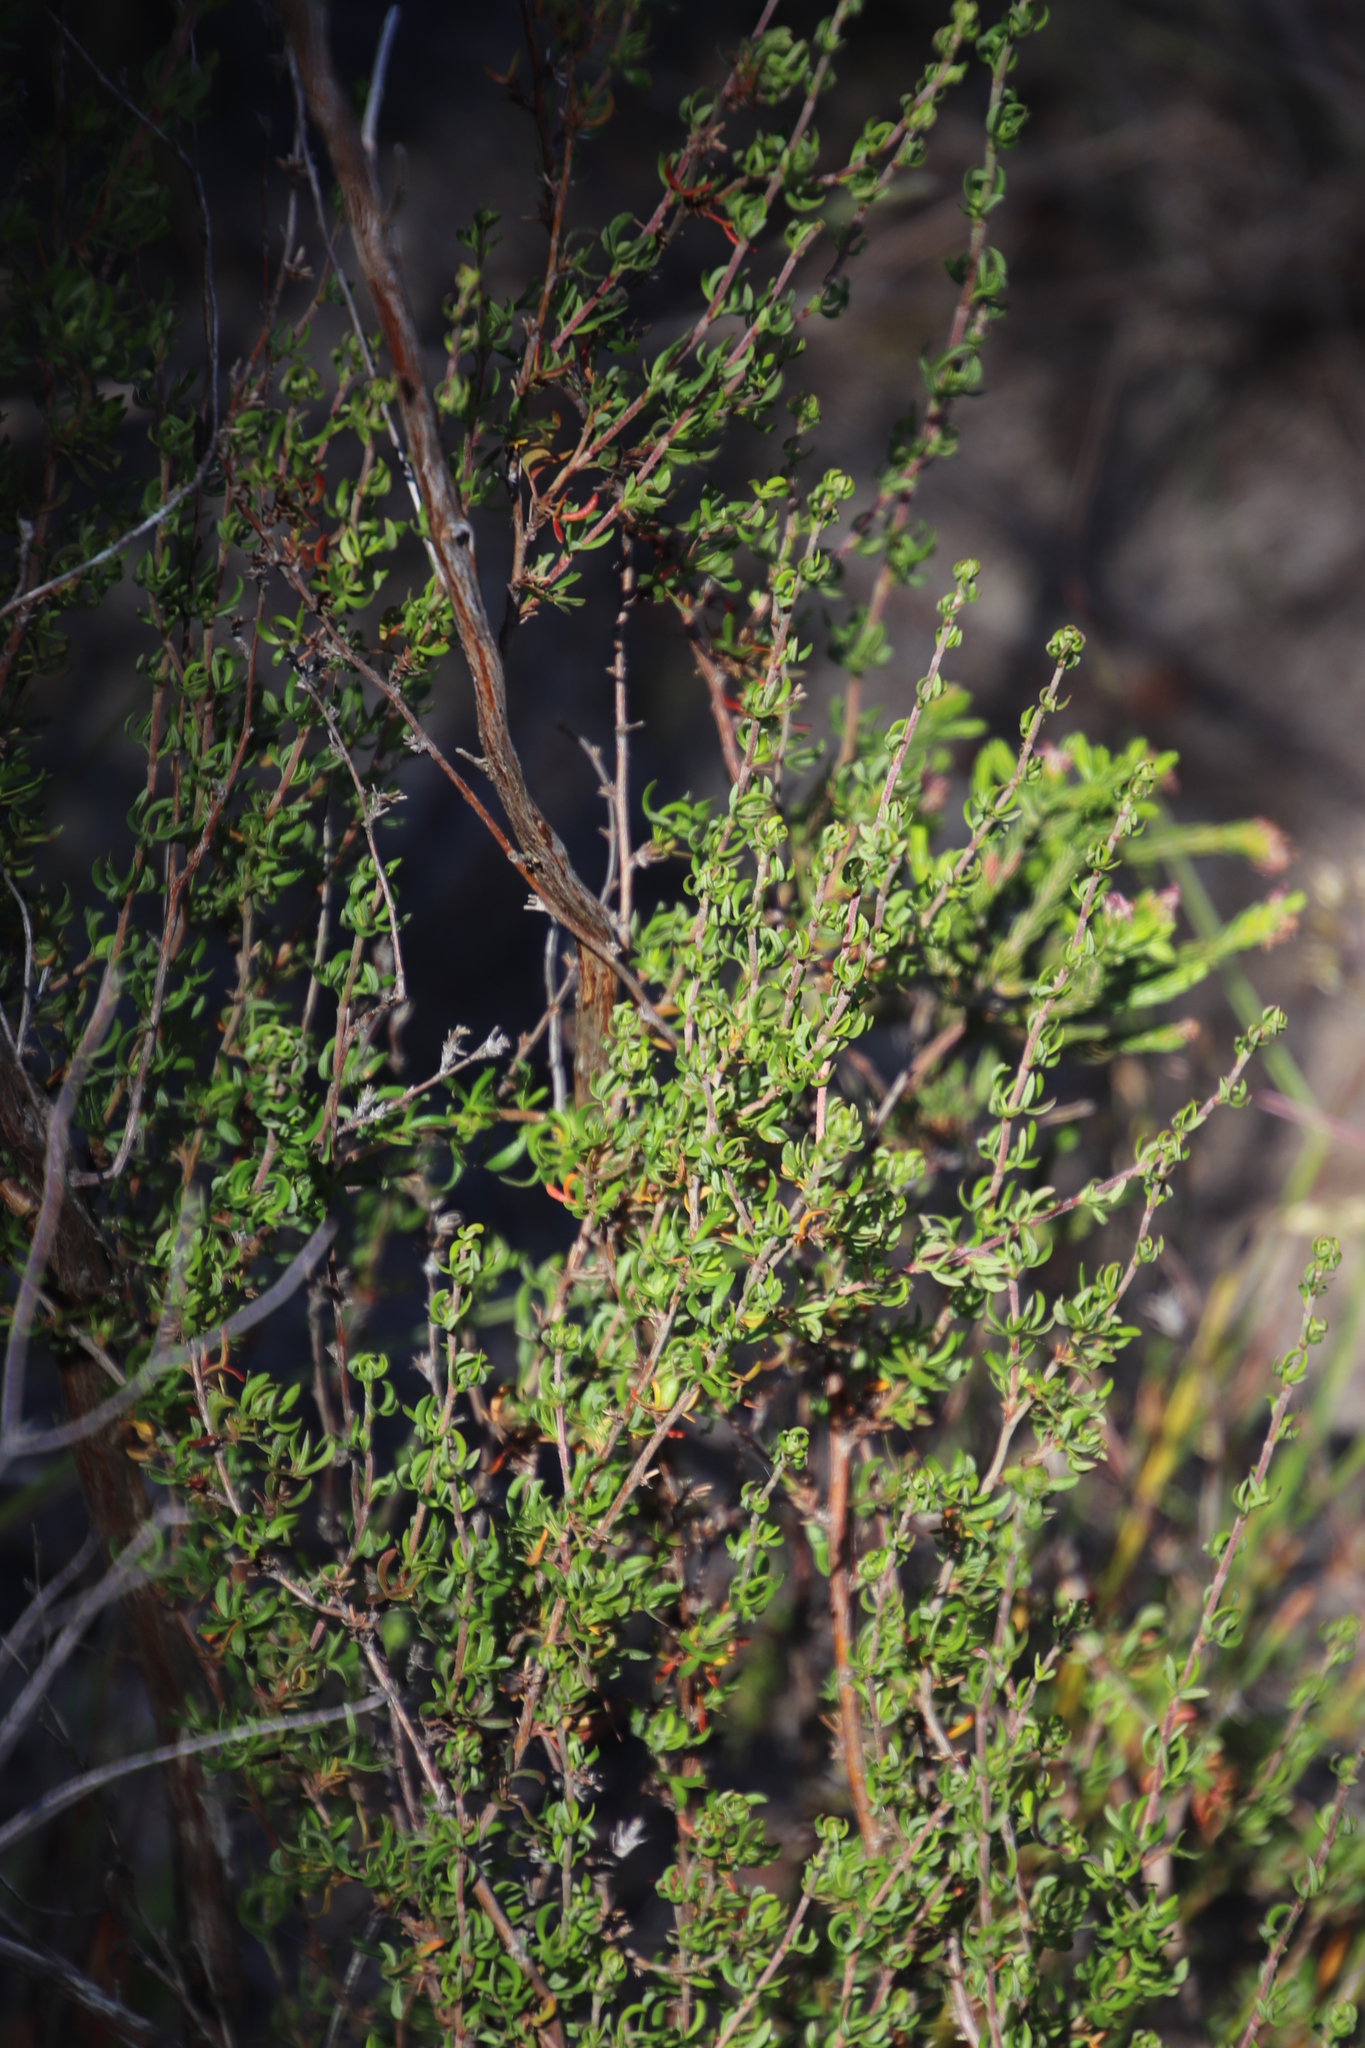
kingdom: Plantae
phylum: Tracheophyta
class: Magnoliopsida
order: Rosales
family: Rosaceae
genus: Cliffortia
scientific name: Cliffortia falcata
